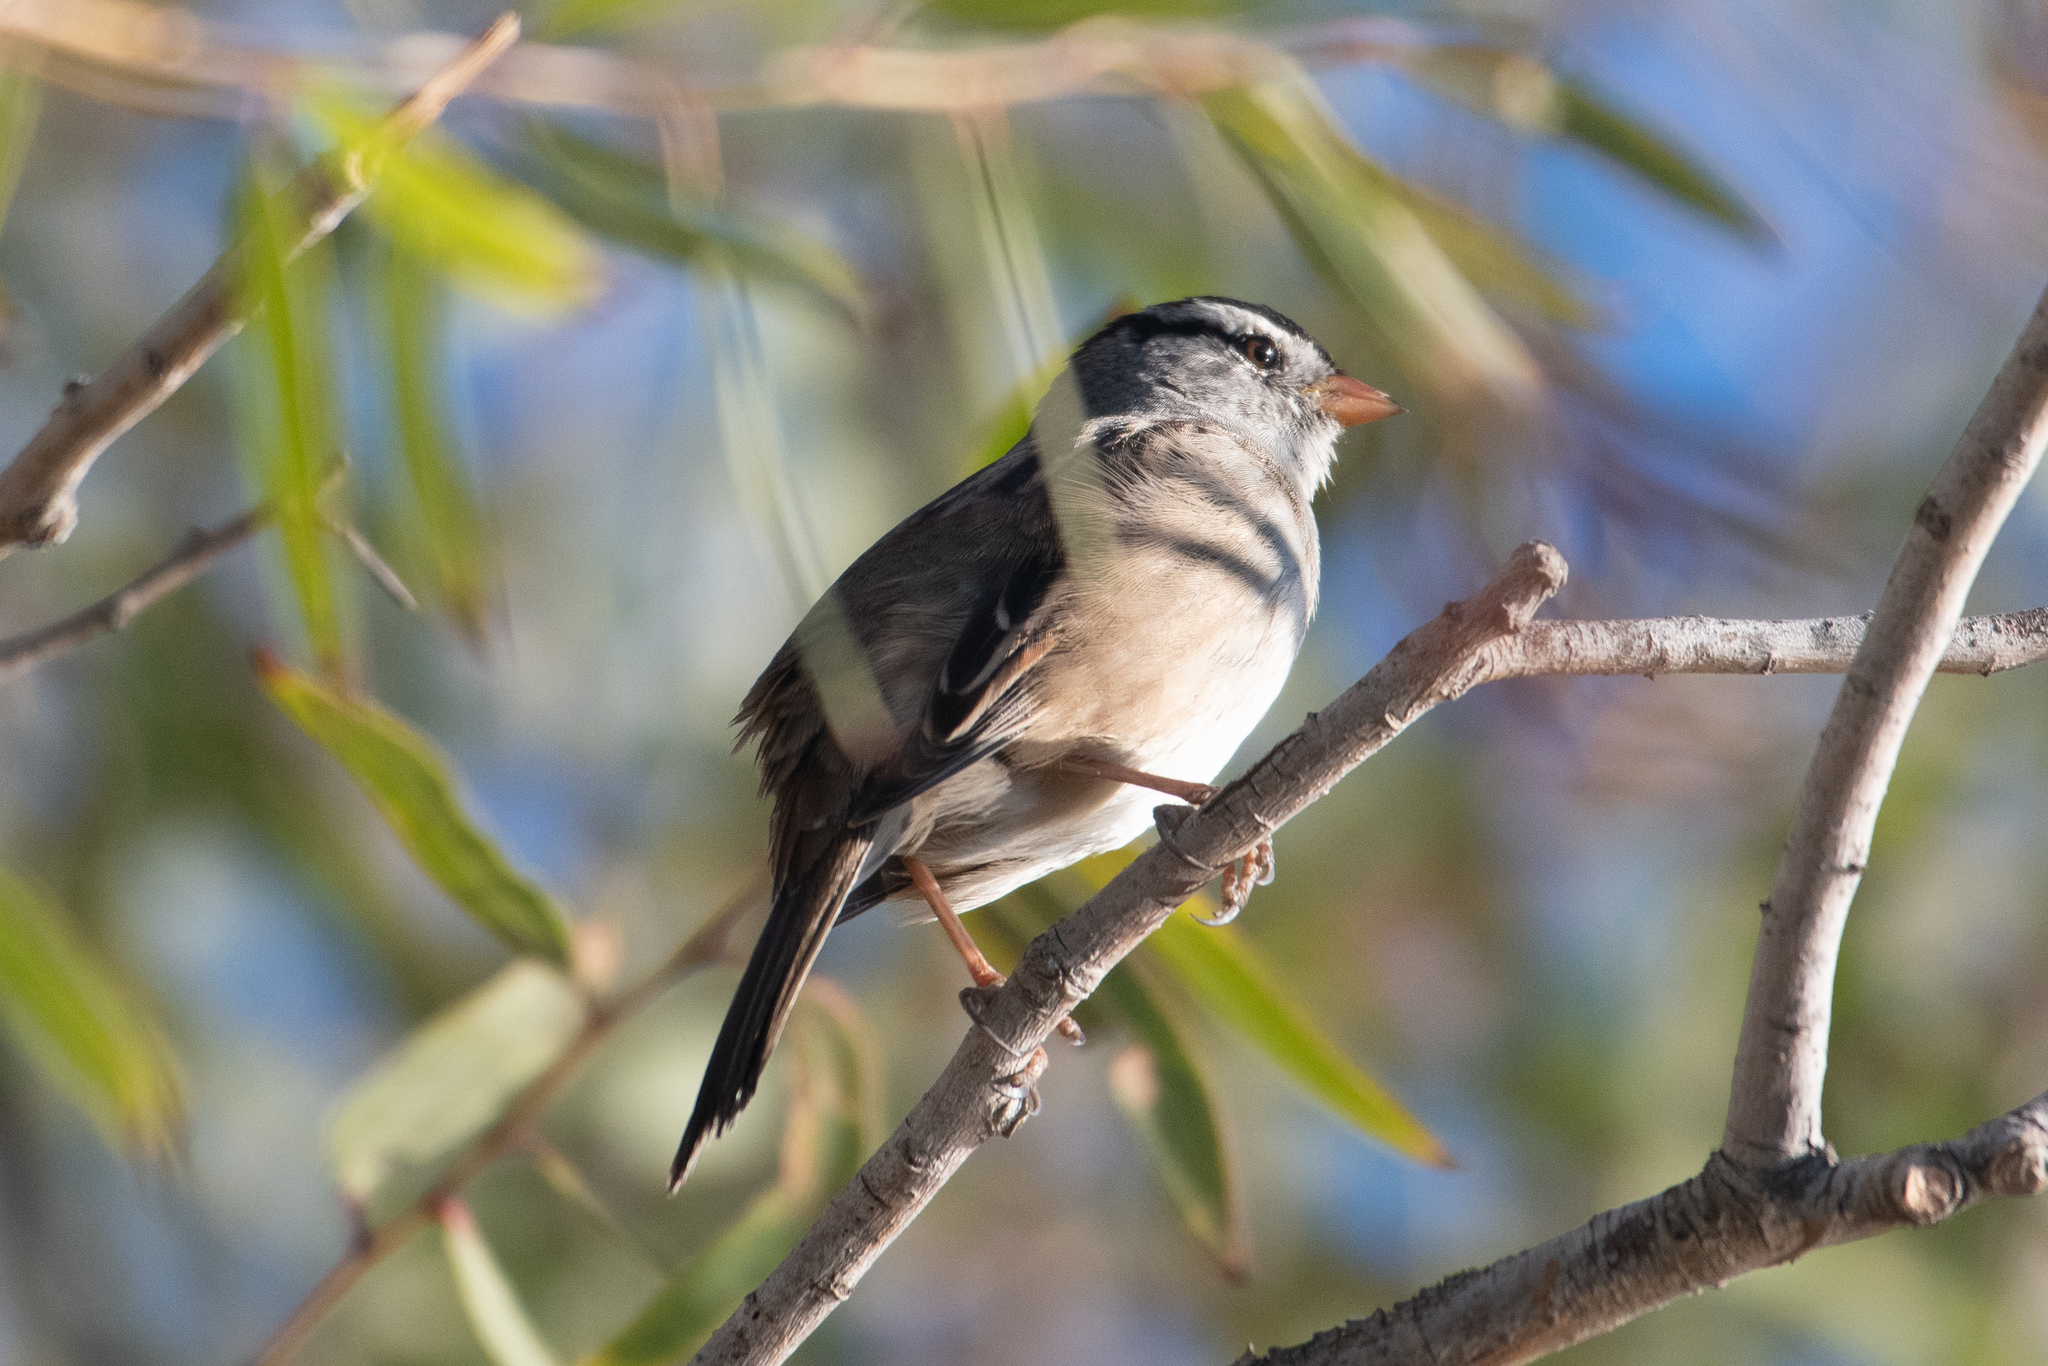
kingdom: Animalia
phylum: Chordata
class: Aves
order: Passeriformes
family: Passerellidae
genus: Zonotrichia
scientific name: Zonotrichia leucophrys
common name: White-crowned sparrow
